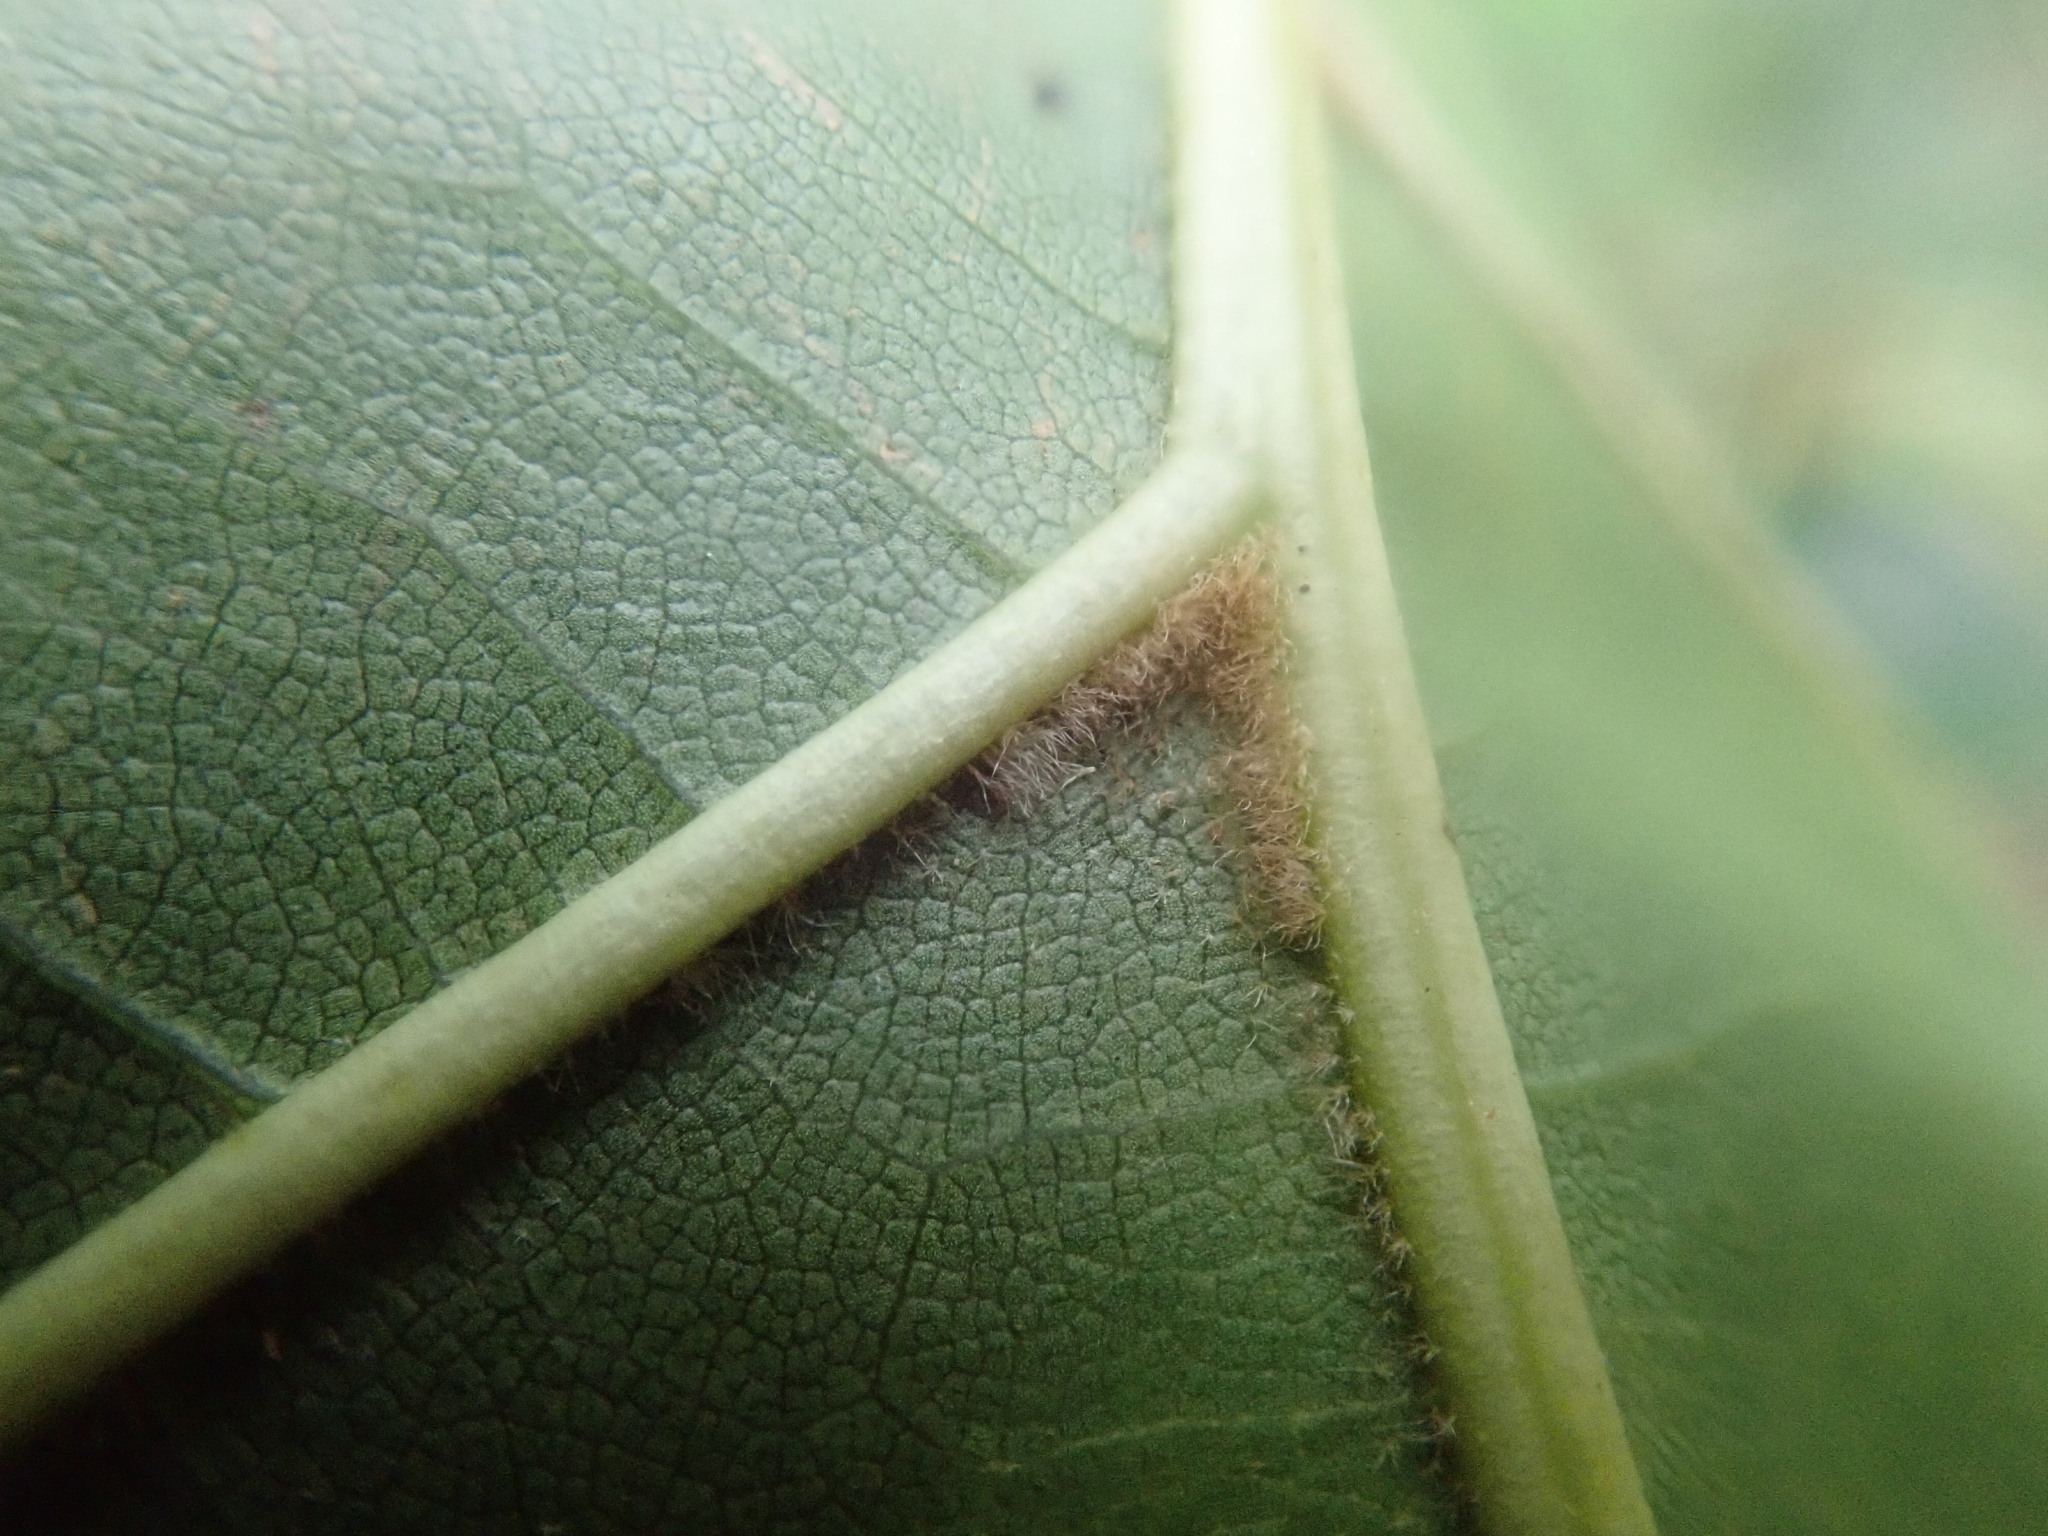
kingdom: Plantae
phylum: Tracheophyta
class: Magnoliopsida
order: Fagales
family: Fagaceae
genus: Quercus
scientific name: Quercus velutina
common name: Black oak
